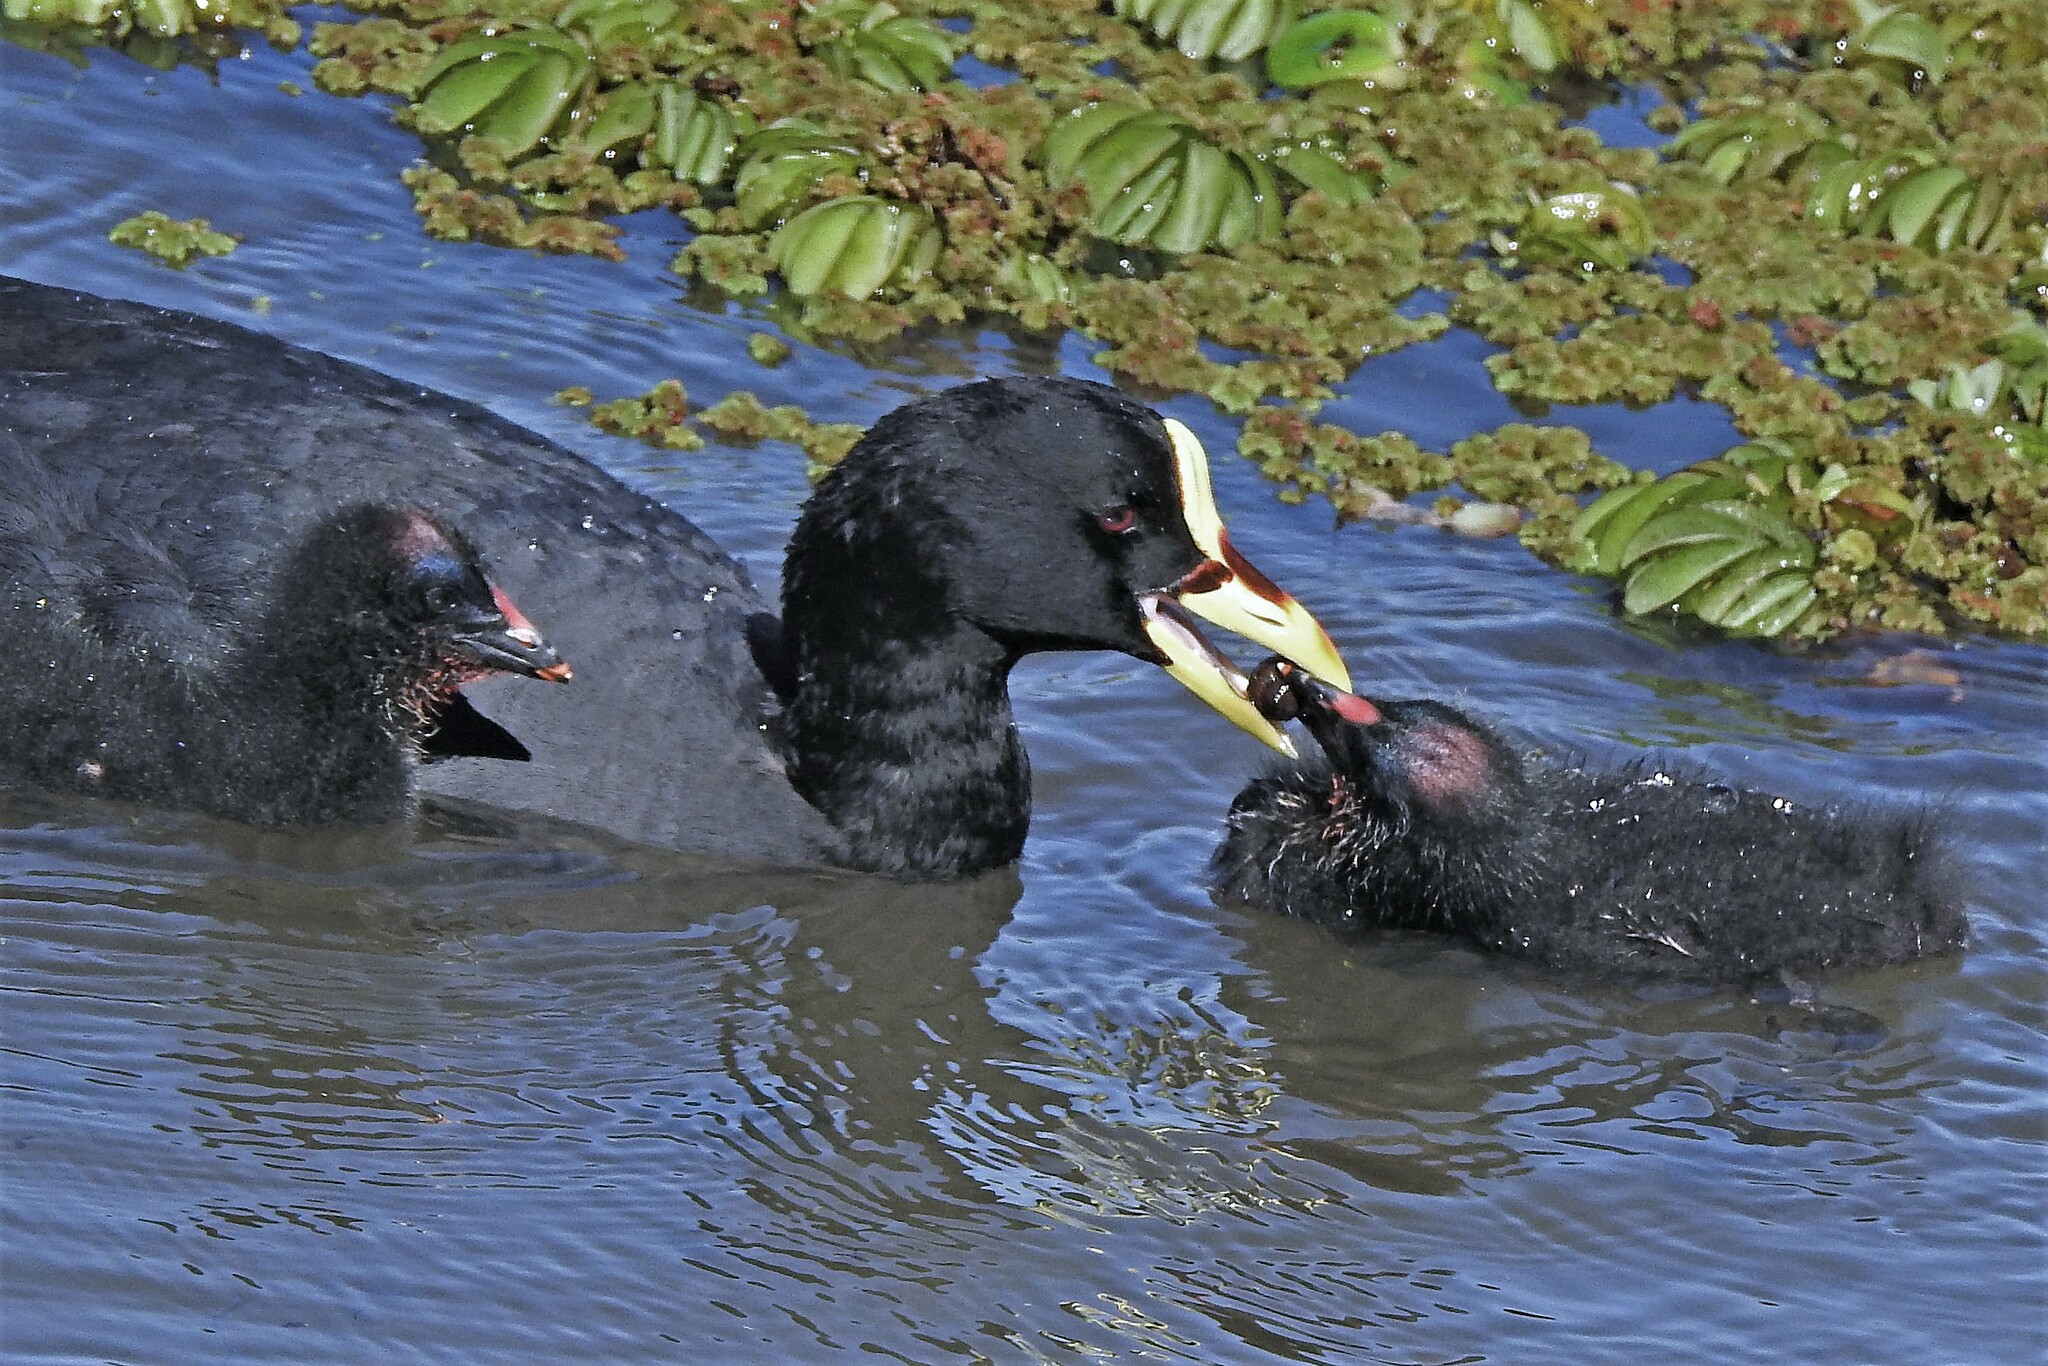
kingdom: Animalia
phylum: Chordata
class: Aves
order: Gruiformes
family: Rallidae
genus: Fulica
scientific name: Fulica armillata
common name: Red-gartered coot
